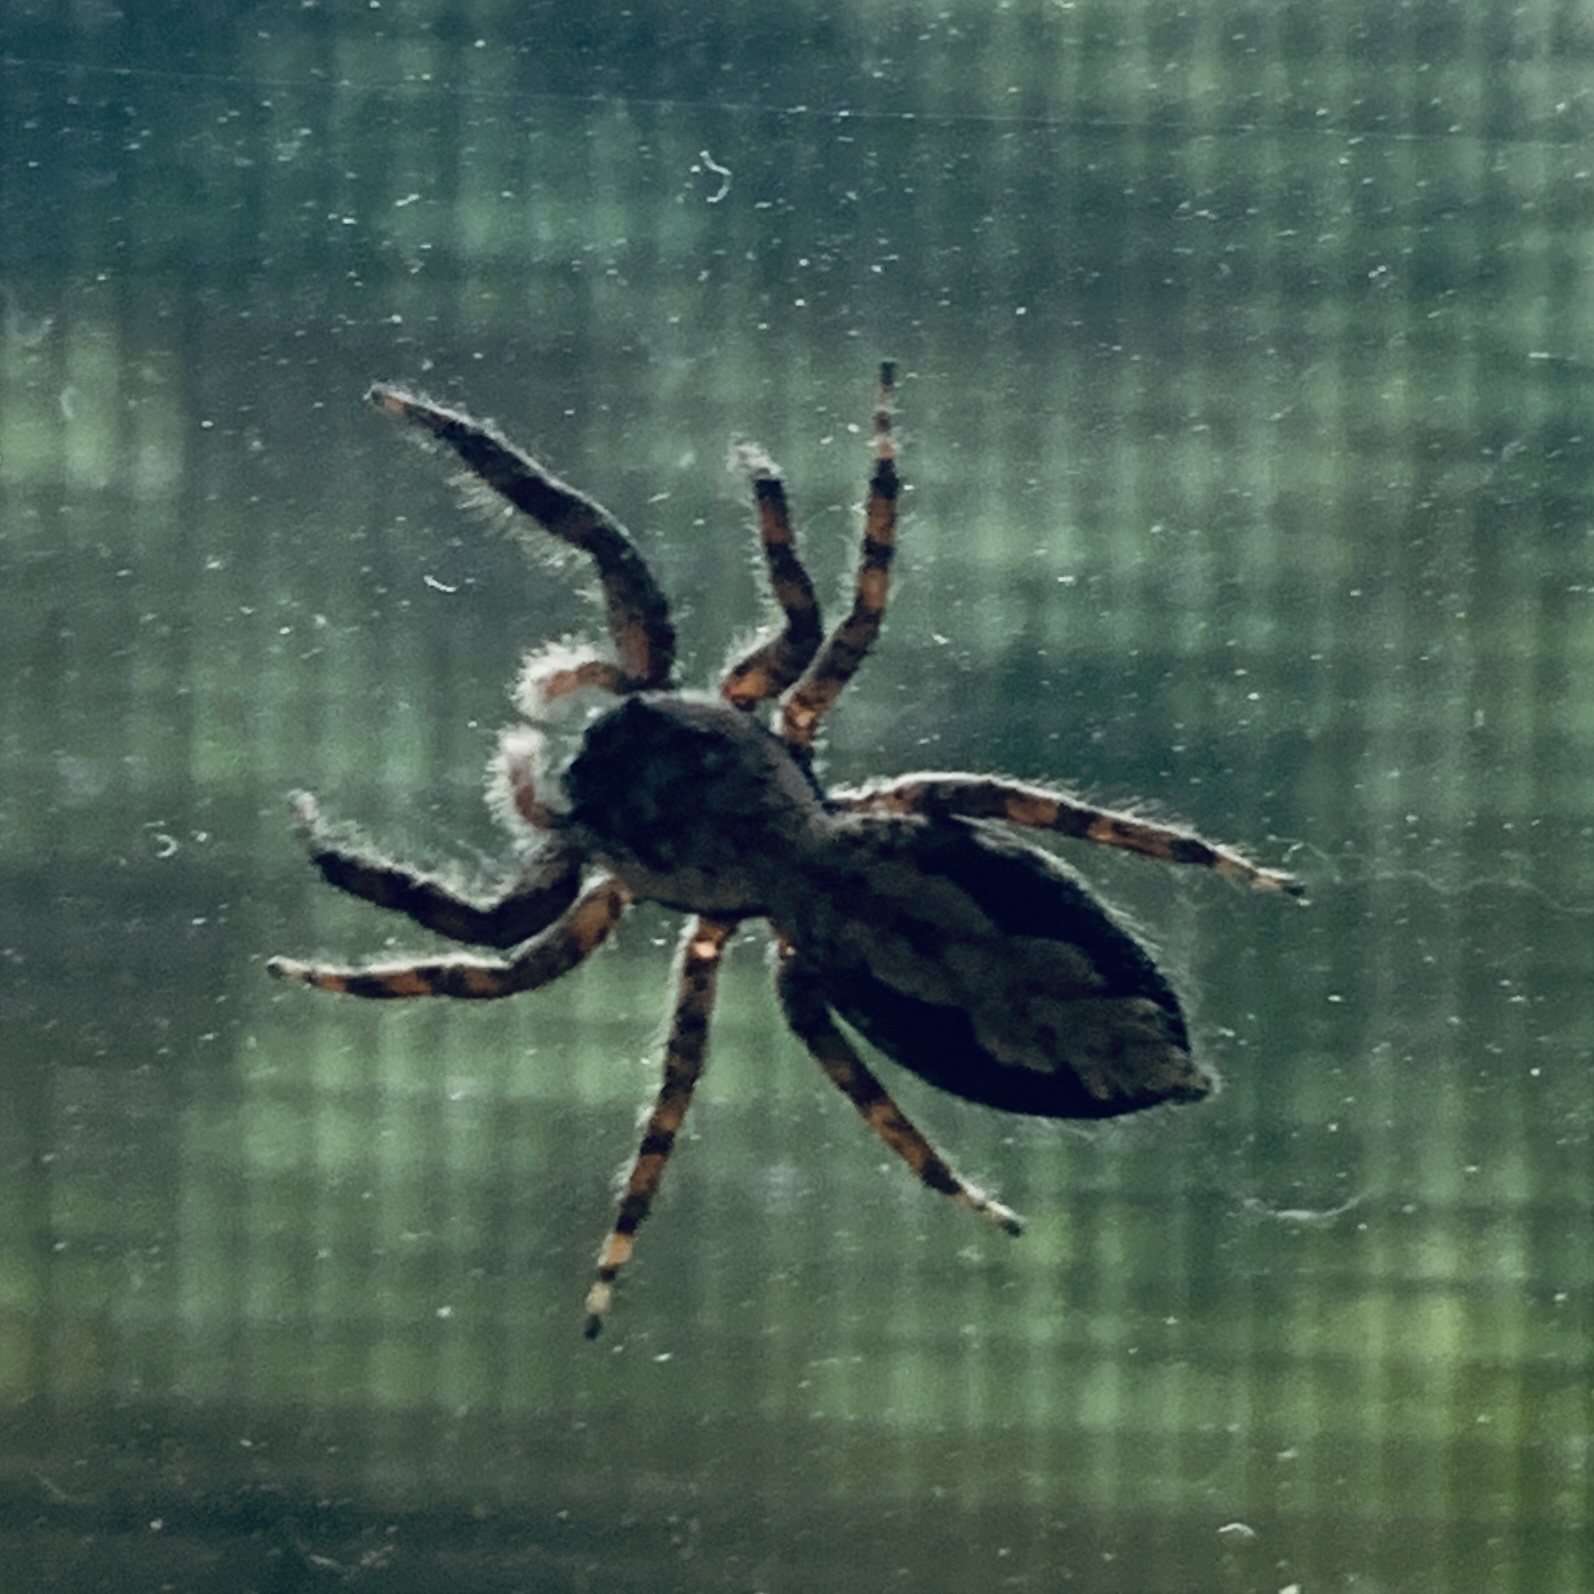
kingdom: Animalia
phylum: Arthropoda
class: Arachnida
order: Araneae
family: Salticidae
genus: Platycryptus
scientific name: Platycryptus undatus
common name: Tan jumping spider
